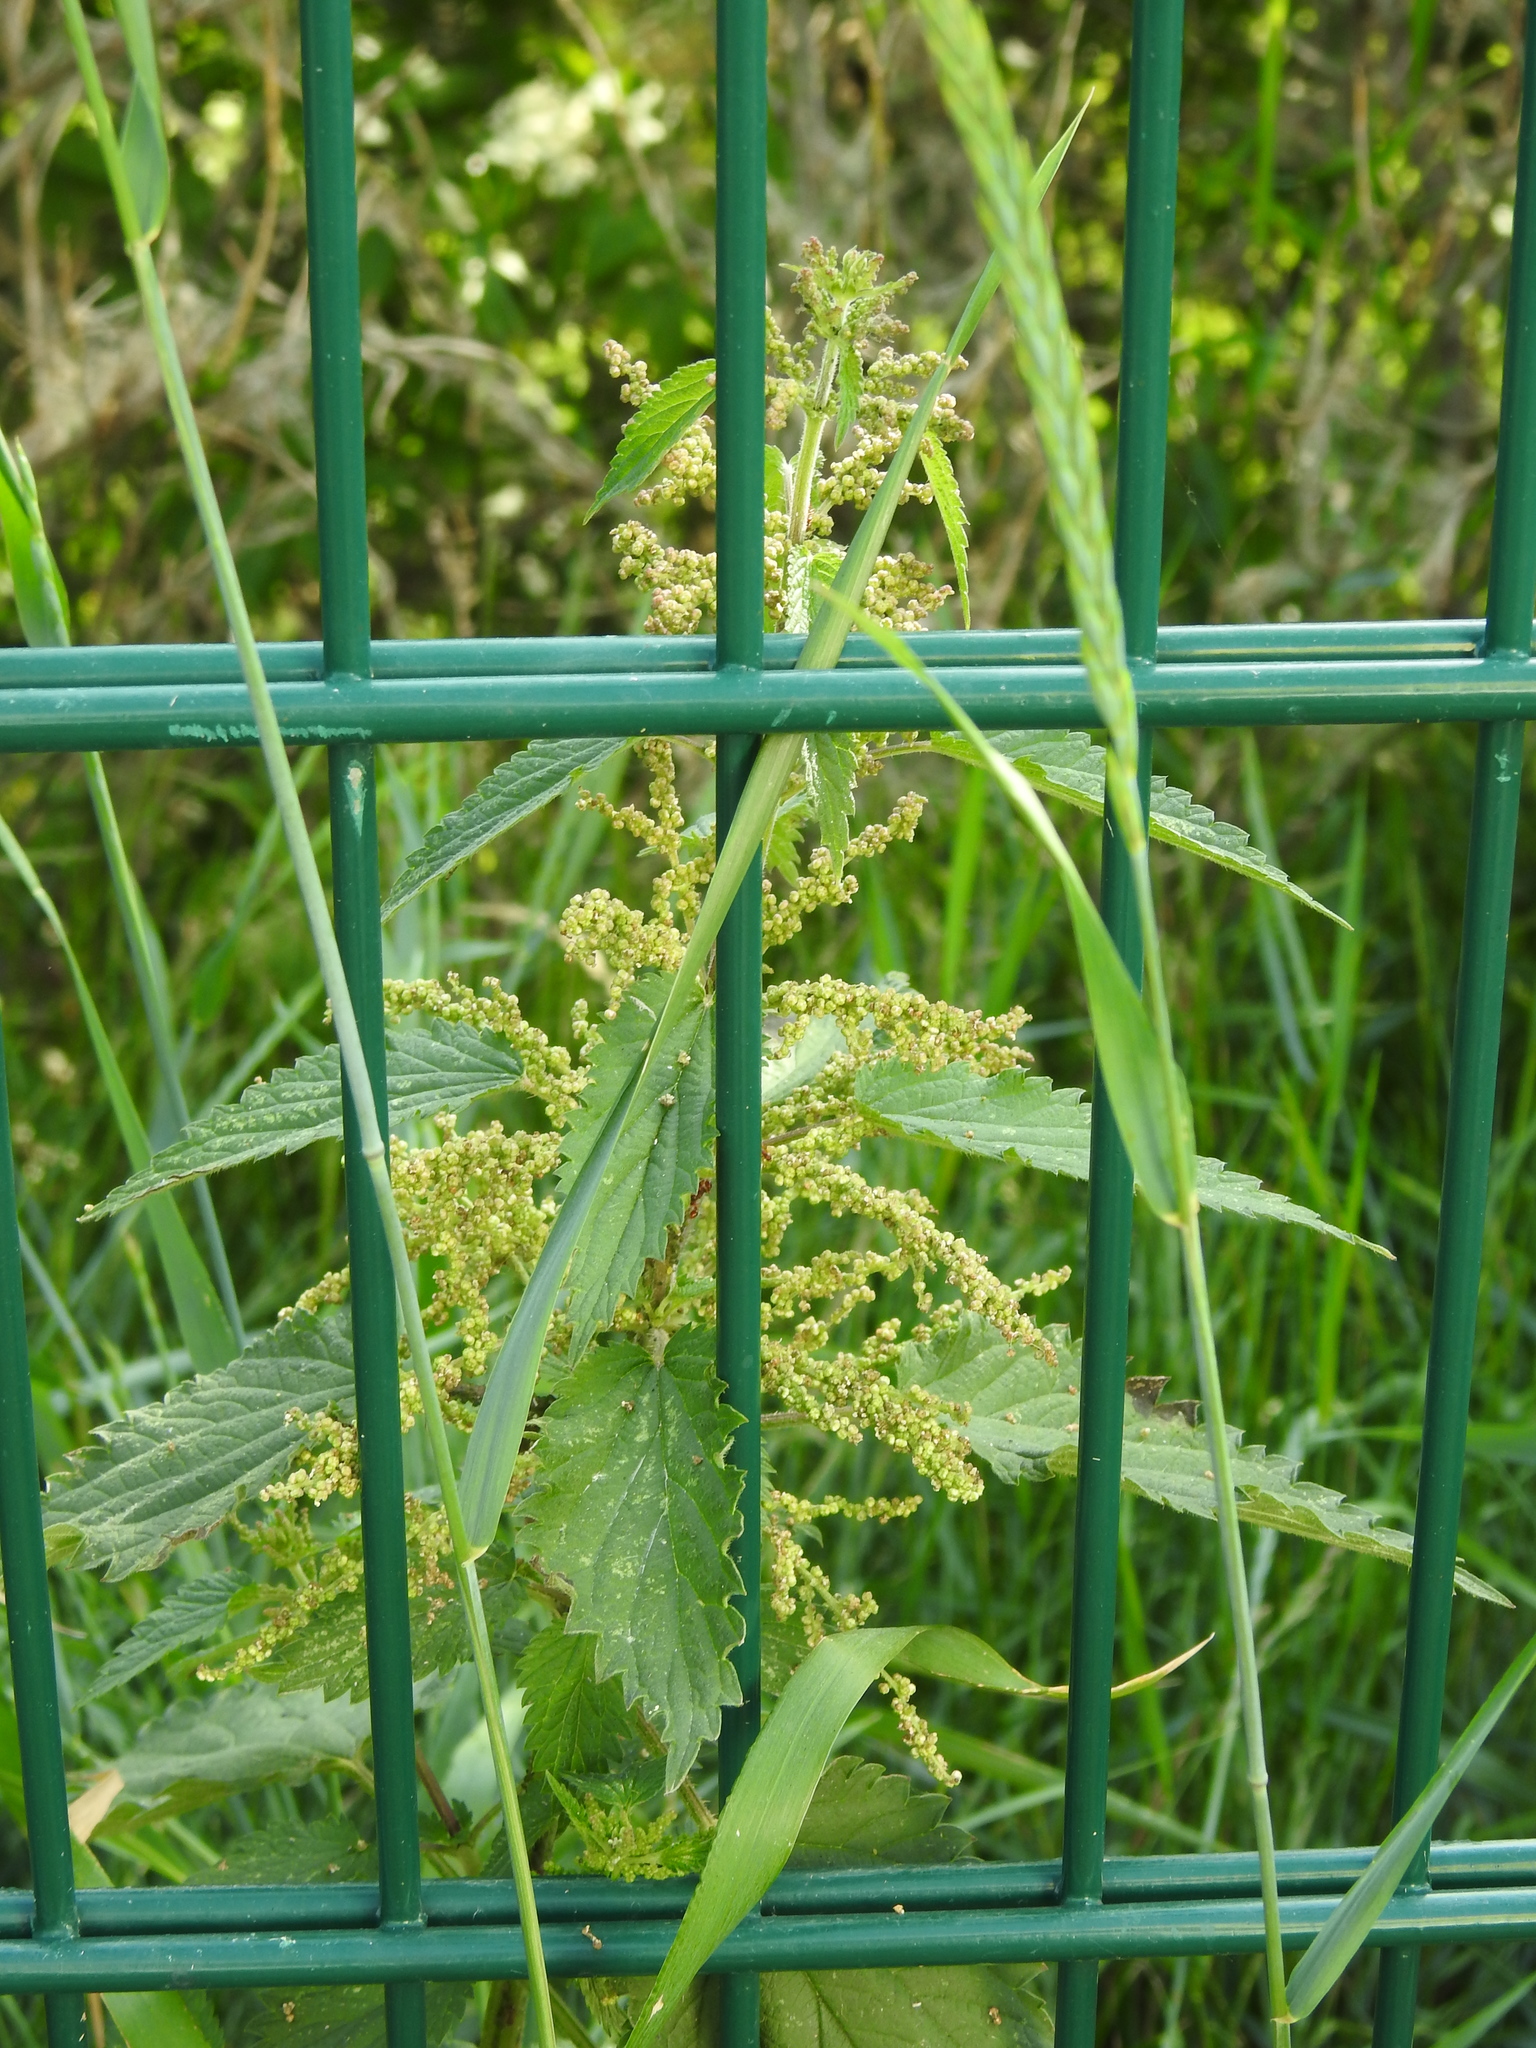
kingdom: Plantae
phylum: Tracheophyta
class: Magnoliopsida
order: Rosales
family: Urticaceae
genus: Urtica
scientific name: Urtica dioica
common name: Common nettle
